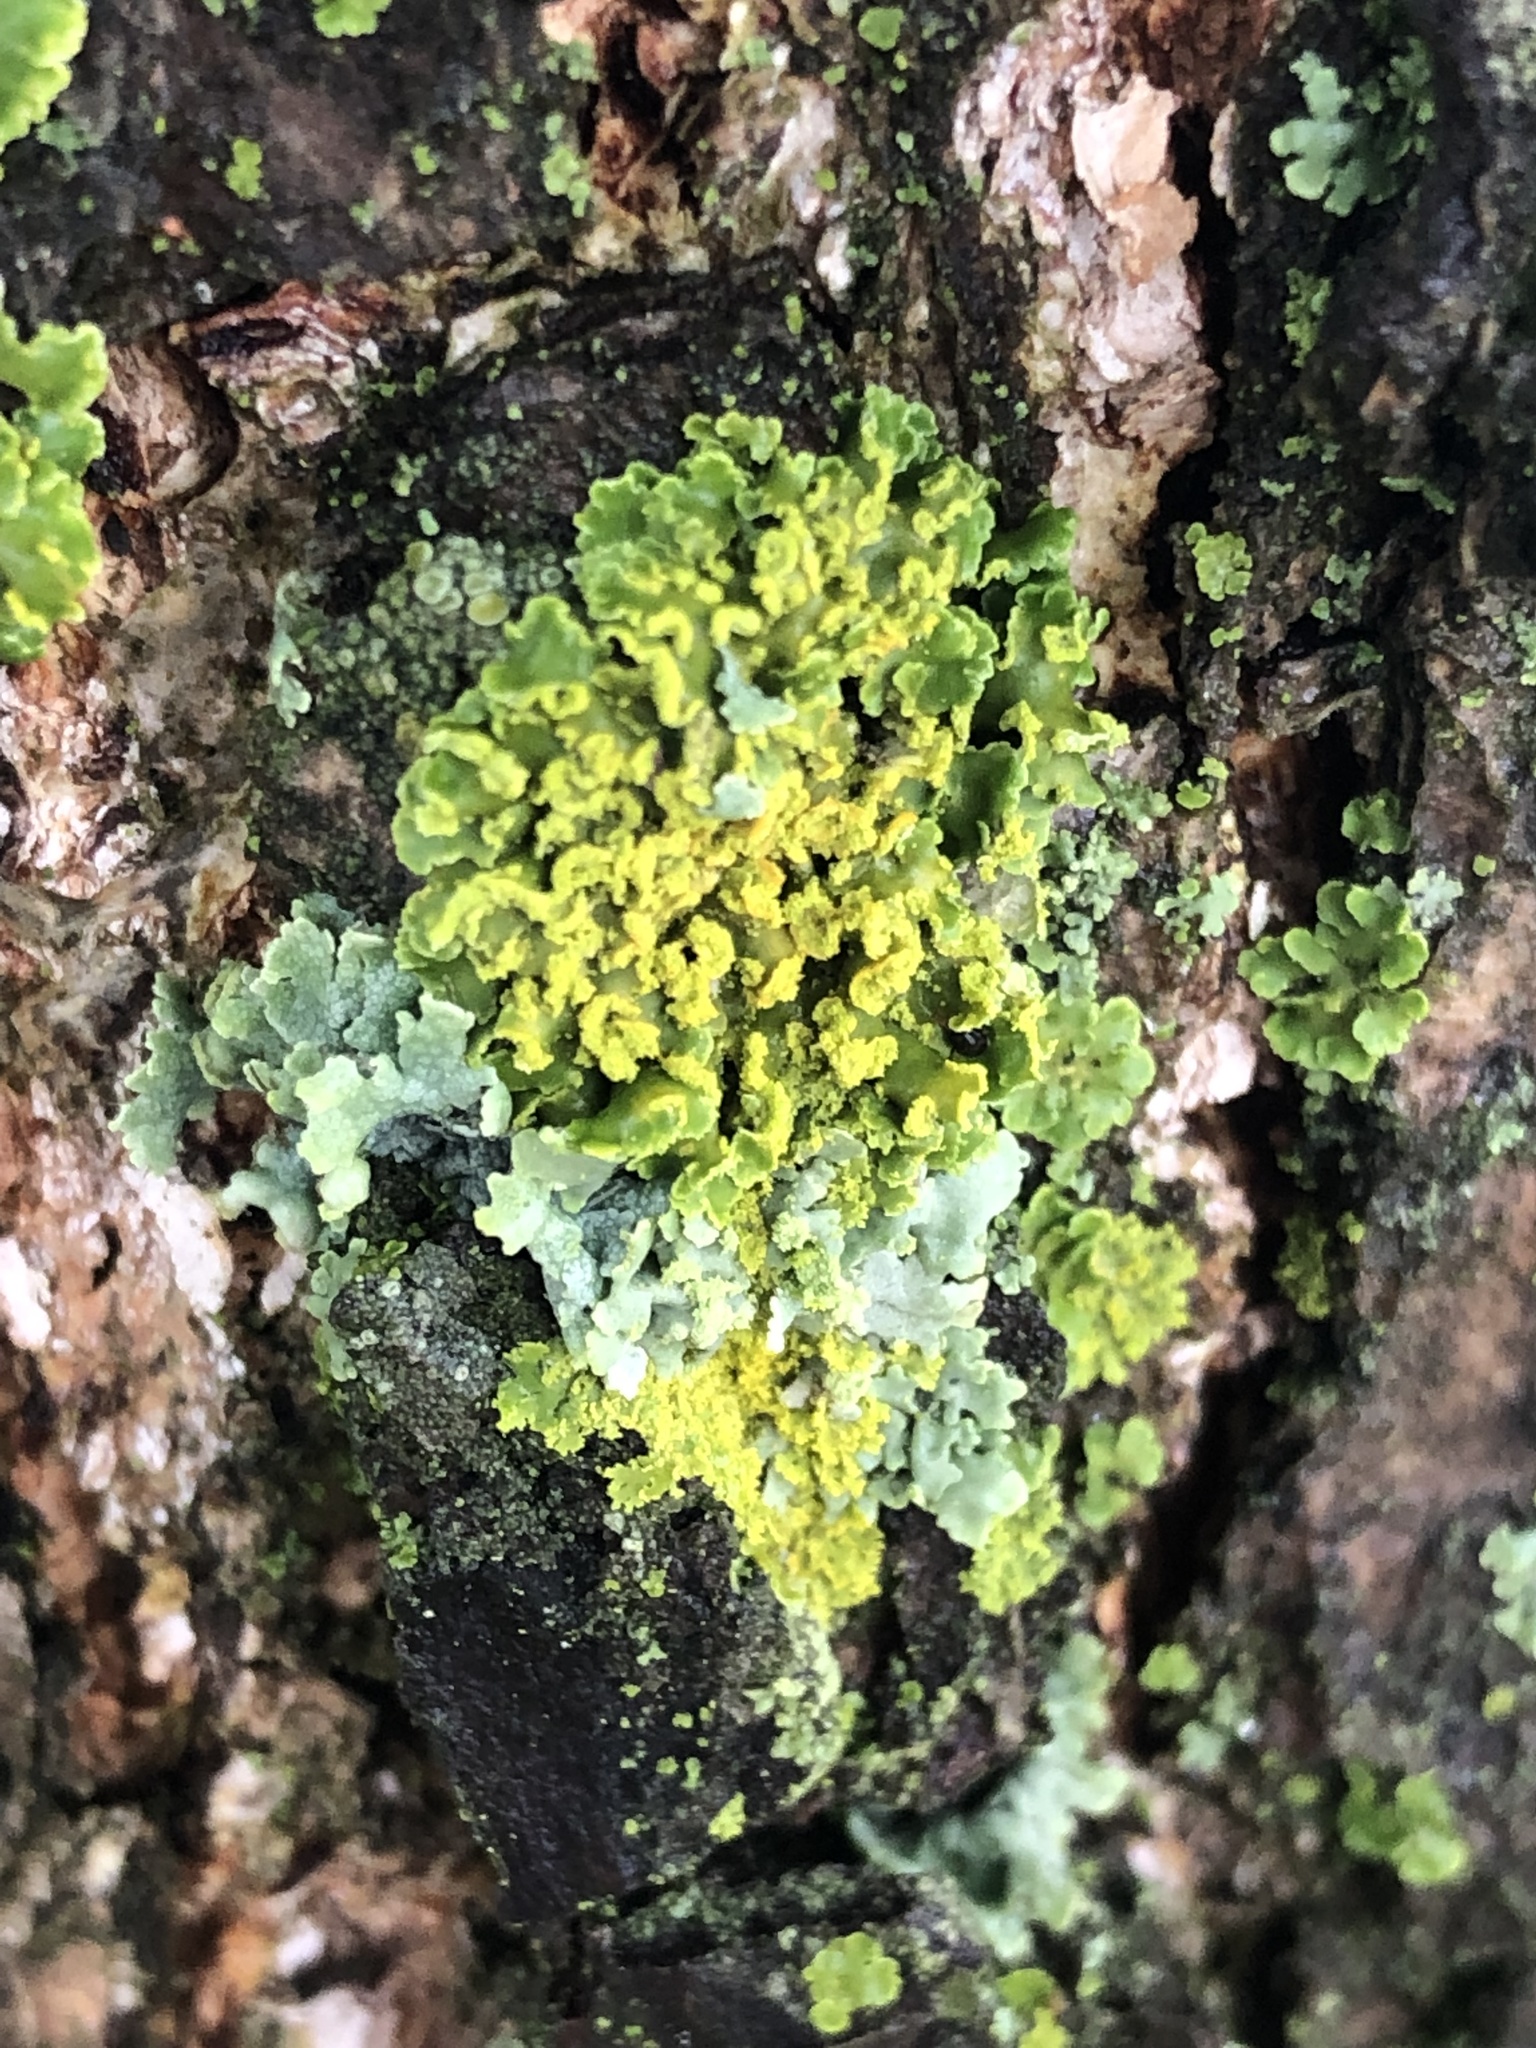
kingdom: Fungi
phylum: Ascomycota
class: Lecanoromycetes
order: Teloschistales
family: Teloschistaceae
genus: Xanthoria
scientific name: Xanthoria ulophyllodes
